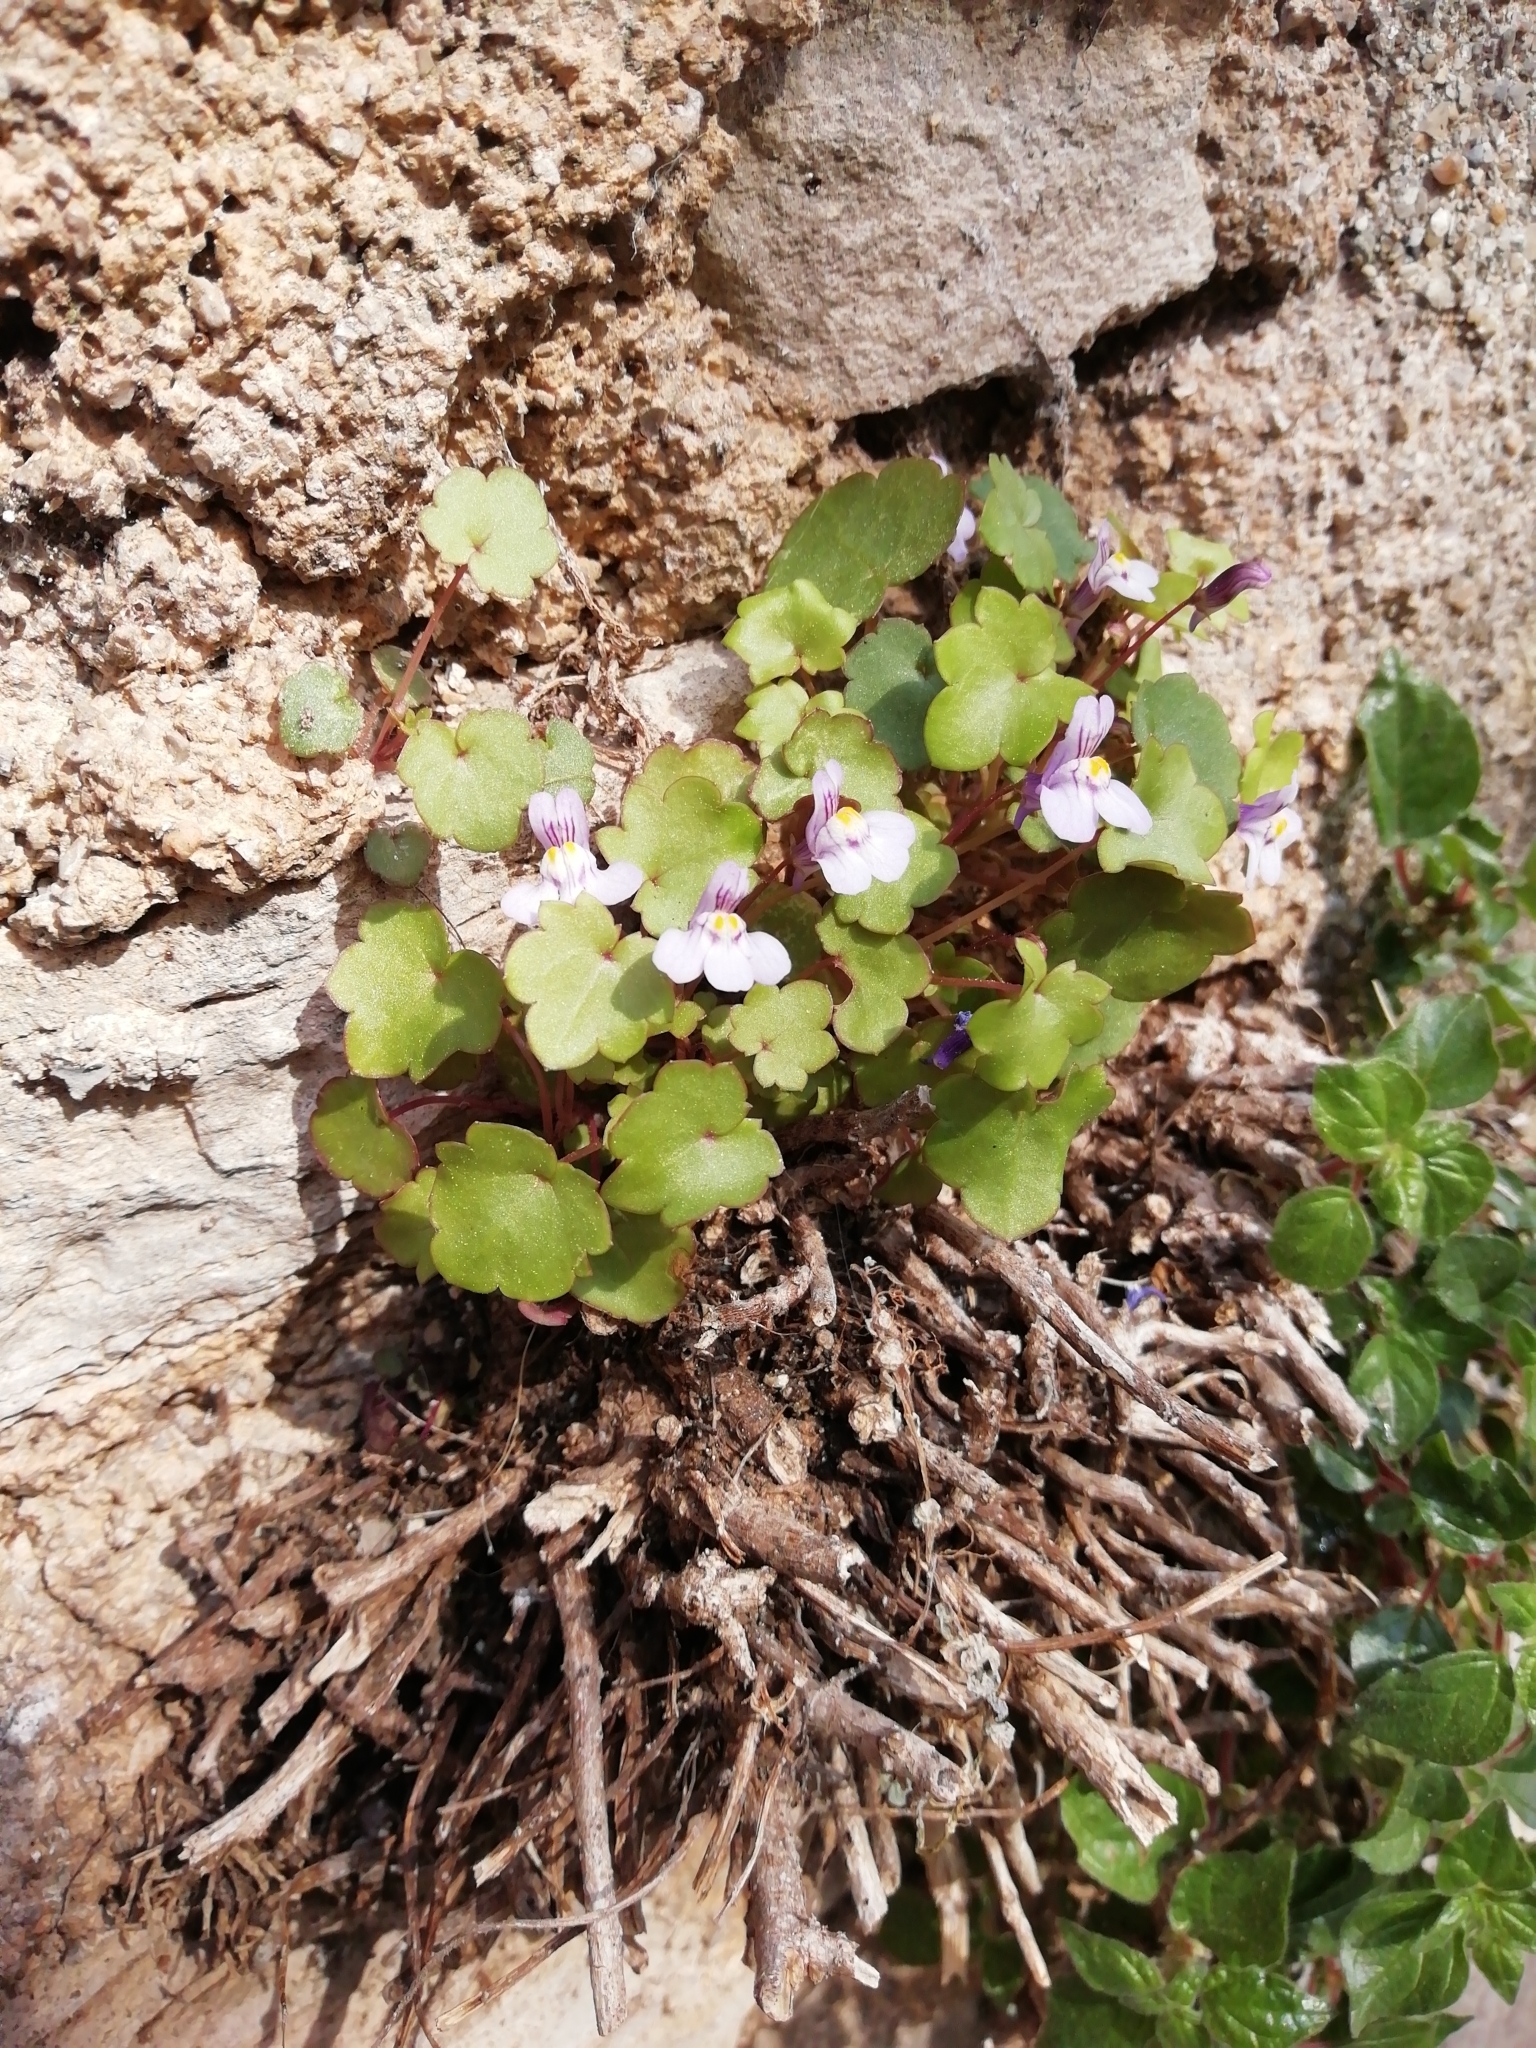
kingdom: Plantae
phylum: Tracheophyta
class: Magnoliopsida
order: Lamiales
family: Plantaginaceae
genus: Cymbalaria
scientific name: Cymbalaria muralis
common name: Ivy-leaved toadflax
